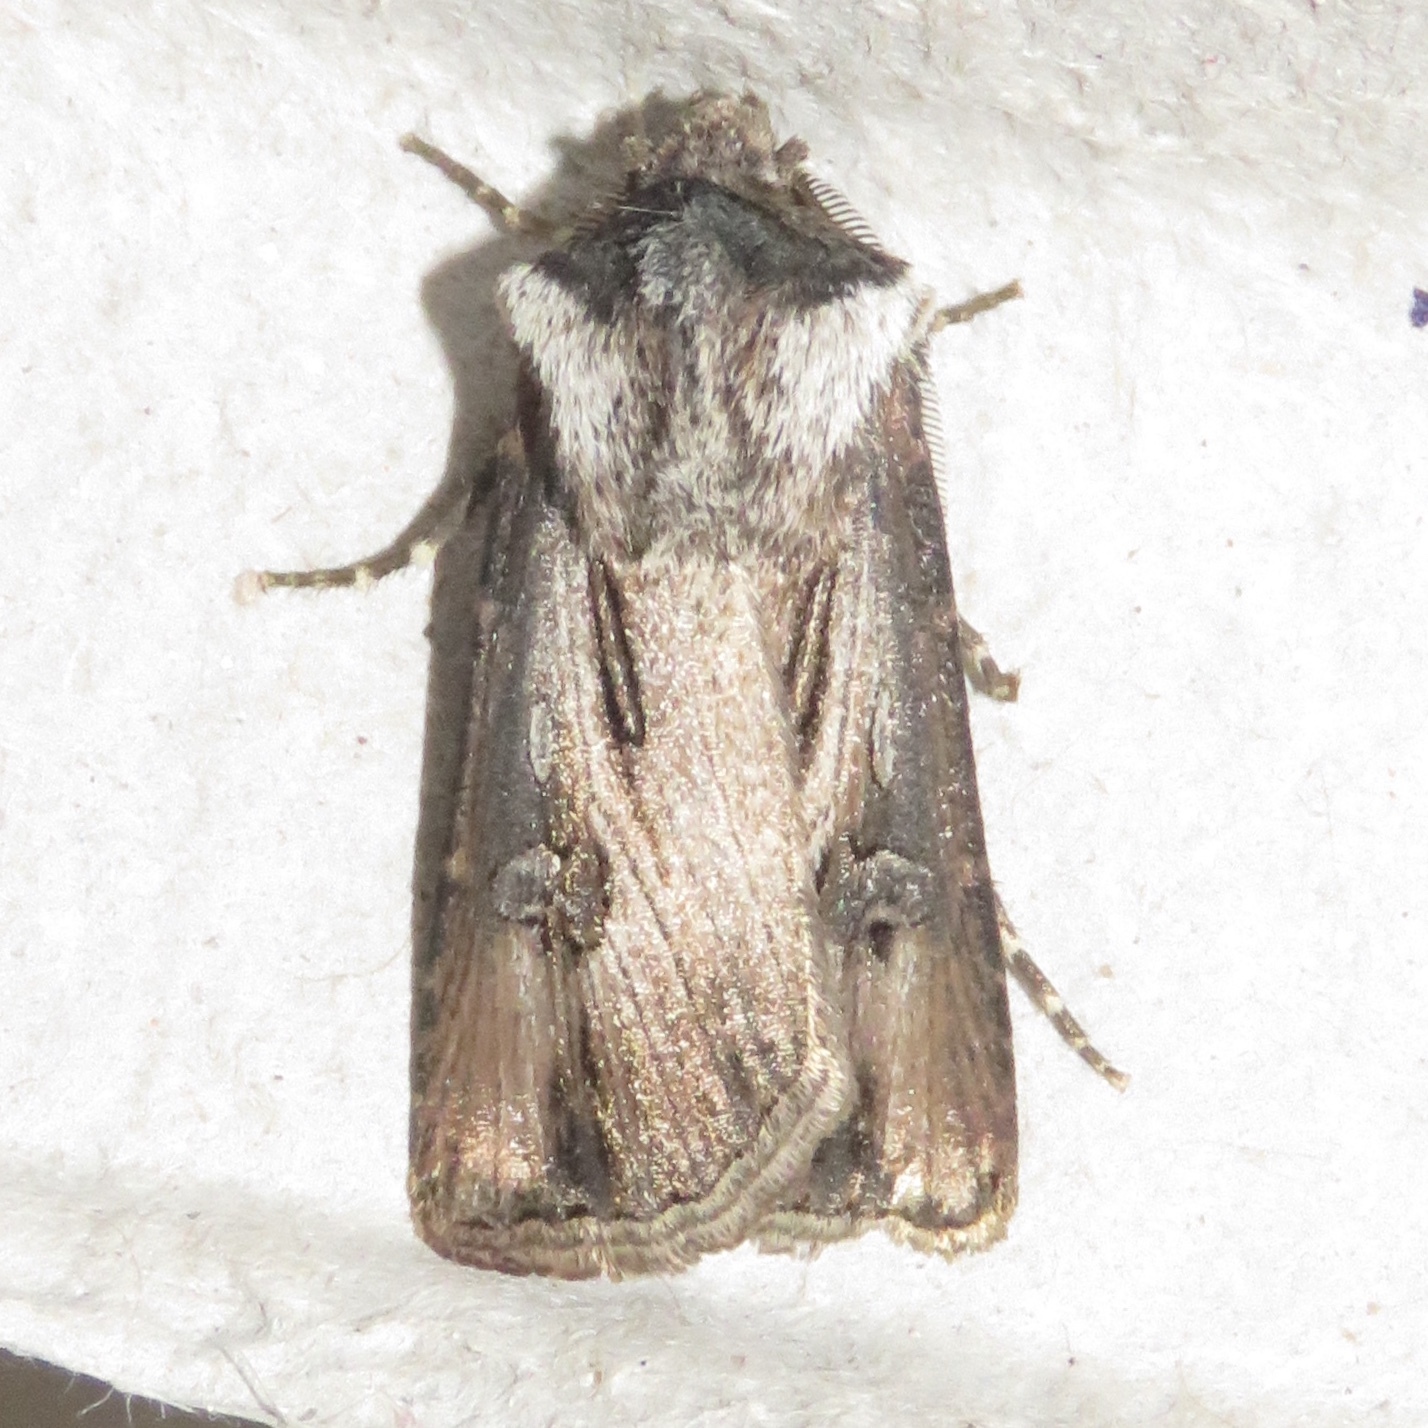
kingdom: Animalia
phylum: Arthropoda
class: Insecta
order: Lepidoptera
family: Noctuidae
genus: Agrotis
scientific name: Agrotis venerabilis
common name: Venerable dart
